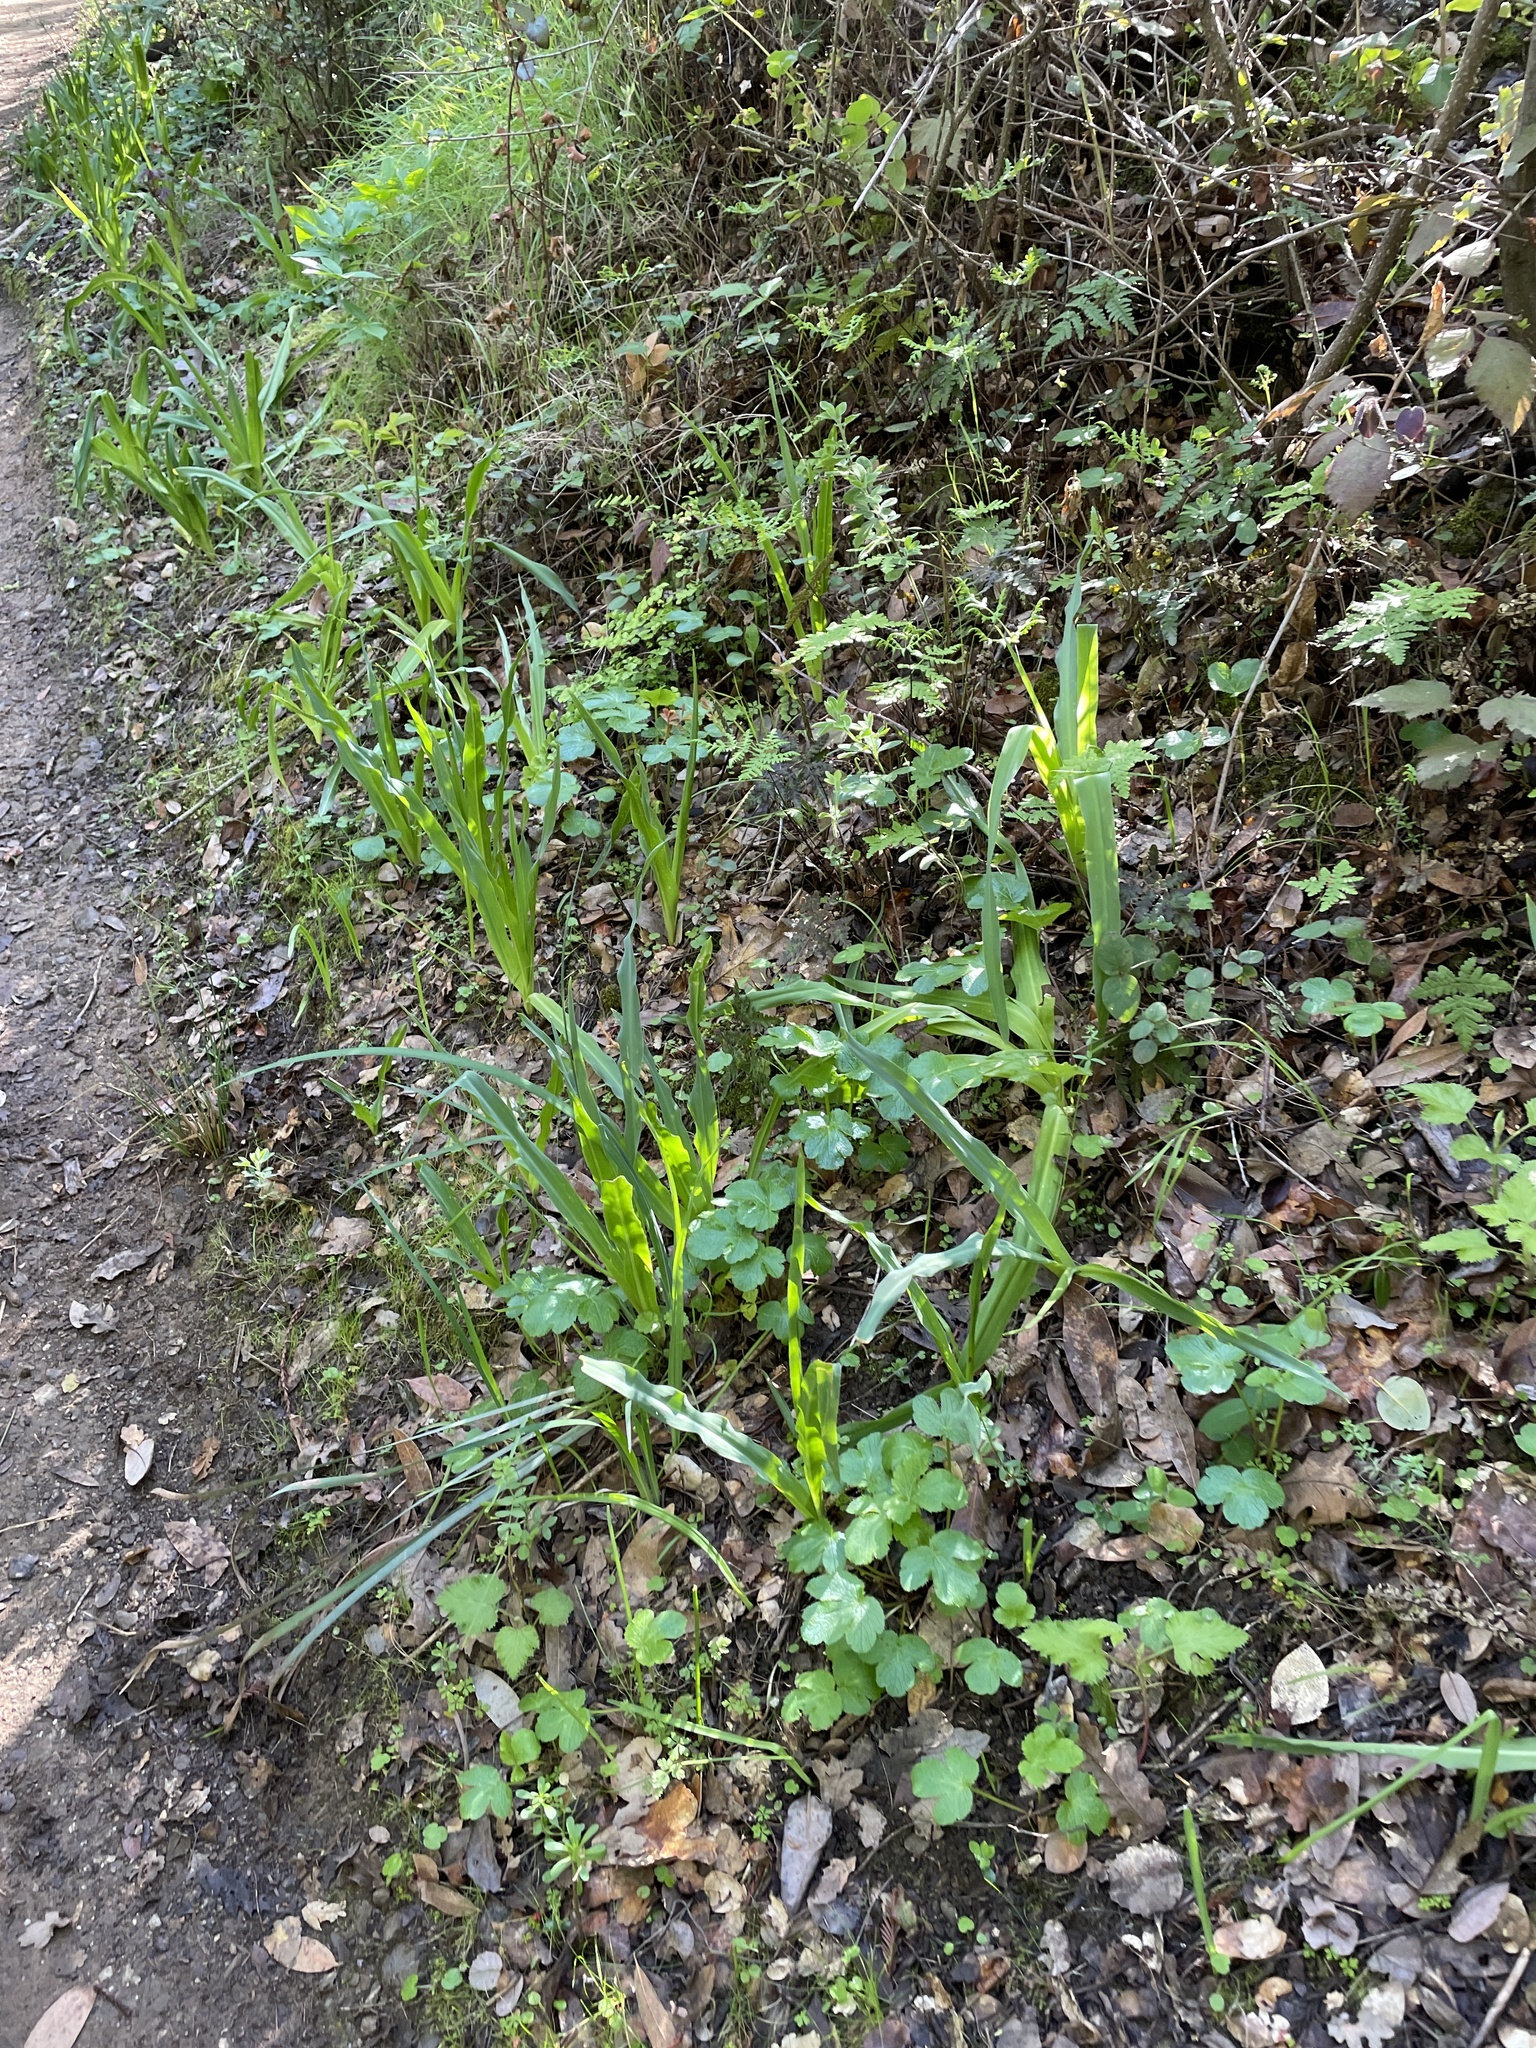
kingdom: Plantae
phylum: Tracheophyta
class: Liliopsida
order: Asparagales
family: Asparagaceae
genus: Chlorogalum
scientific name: Chlorogalum pomeridianum
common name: Amole
